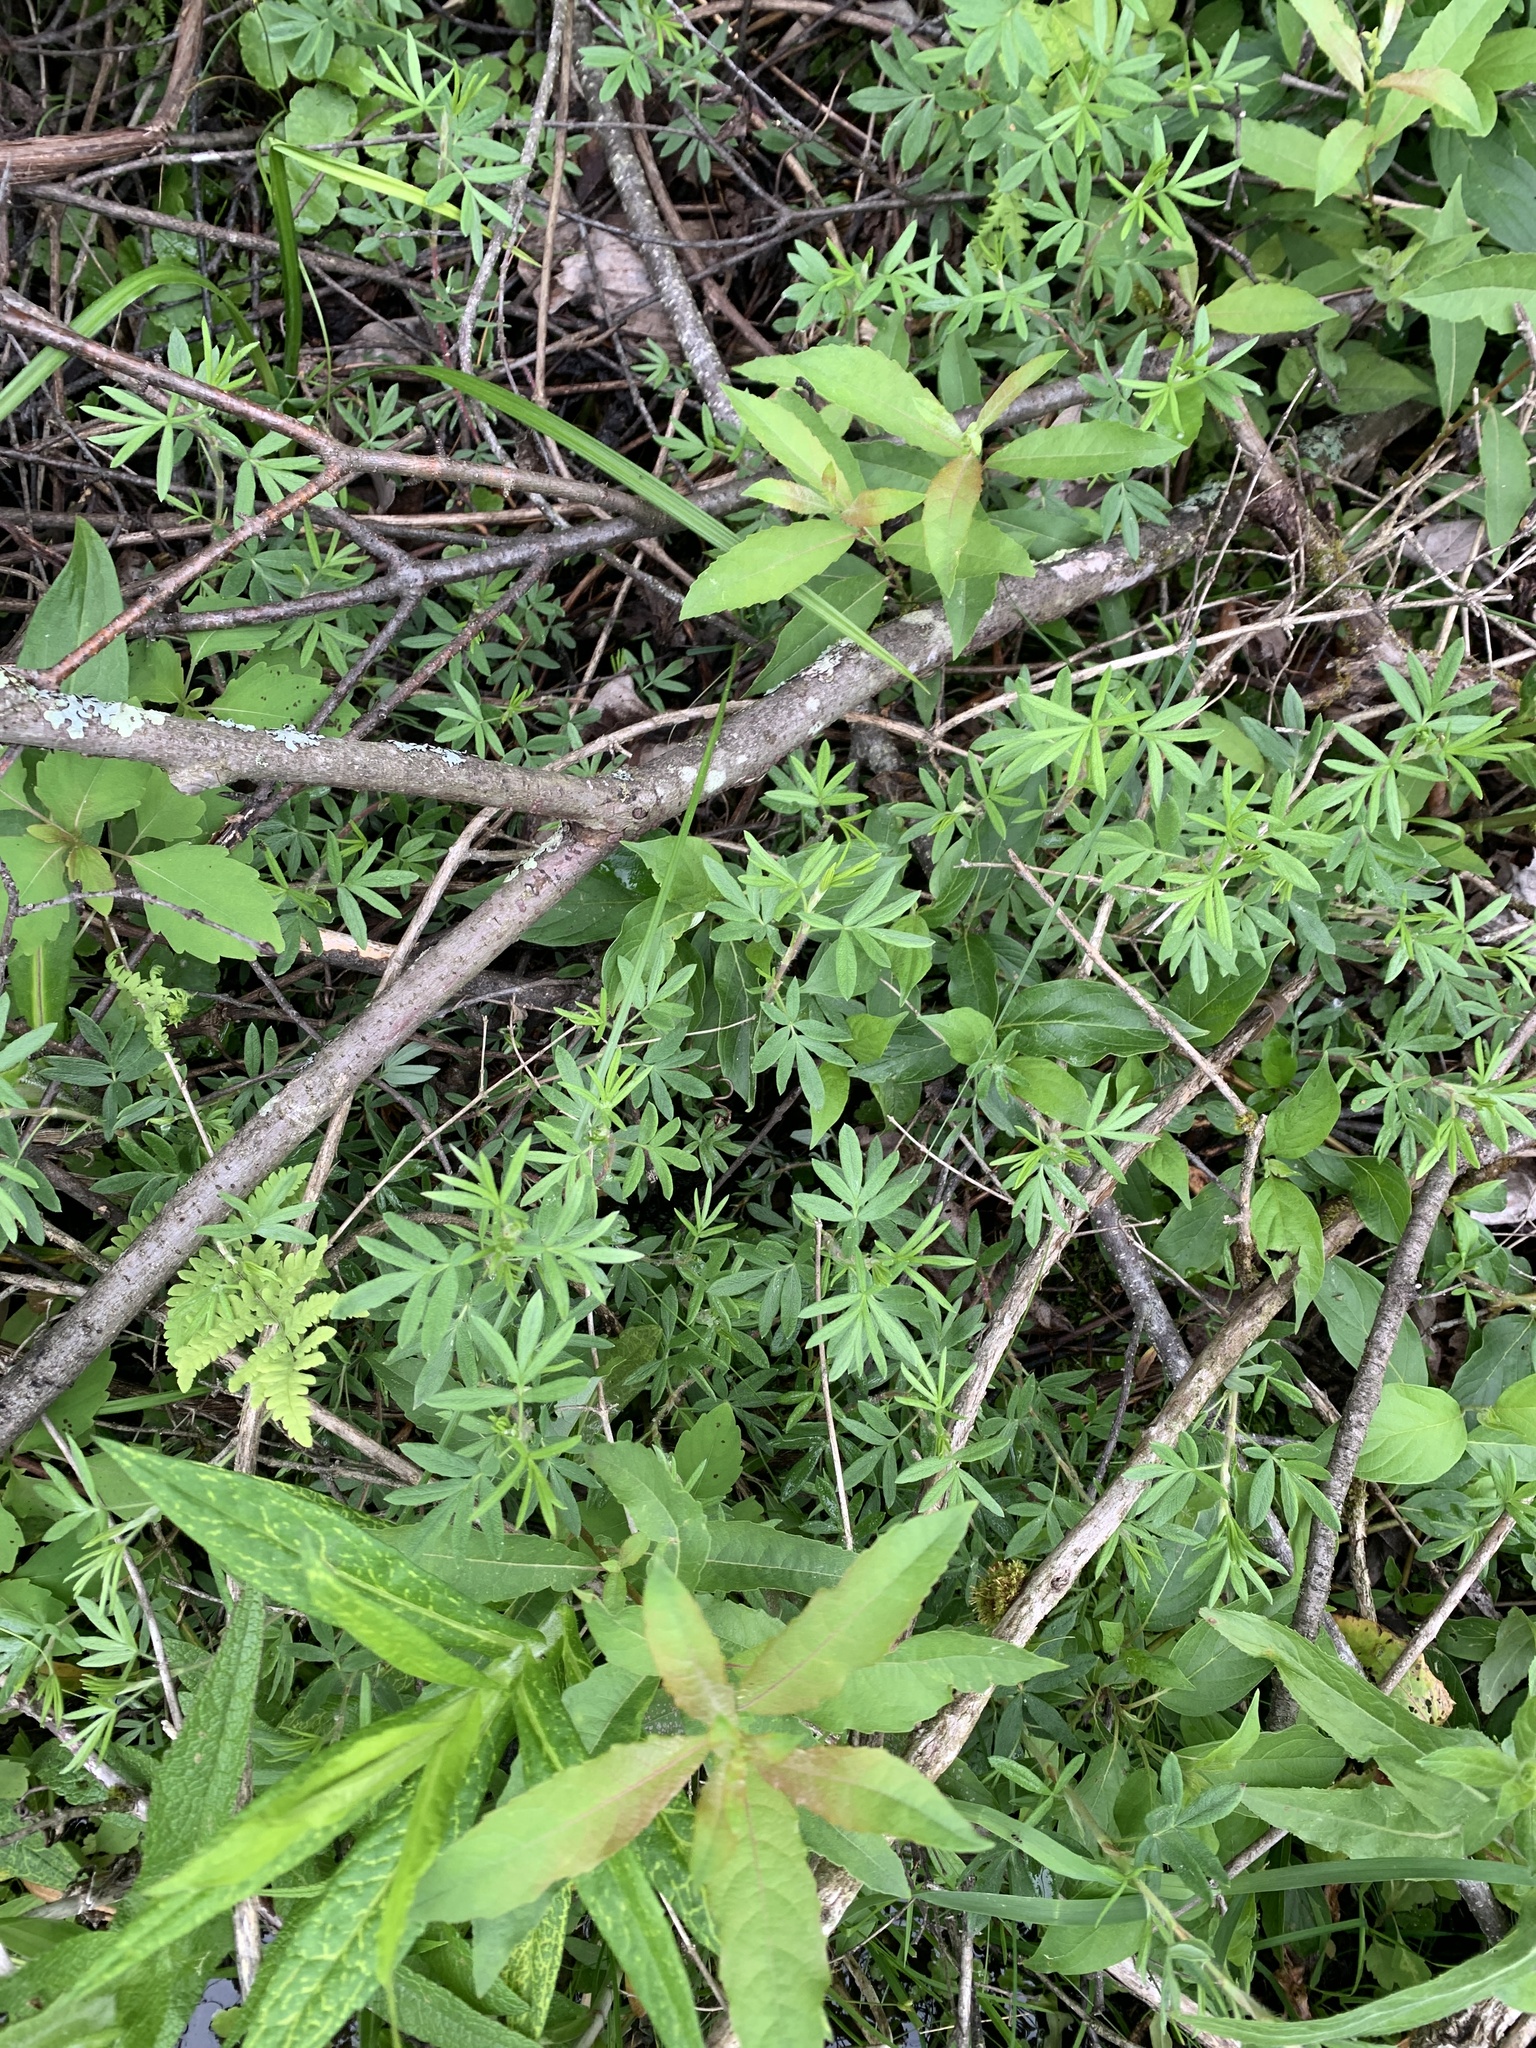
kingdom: Plantae
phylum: Tracheophyta
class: Magnoliopsida
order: Rosales
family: Rosaceae
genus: Dasiphora
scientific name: Dasiphora fruticosa
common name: Shrubby cinquefoil
